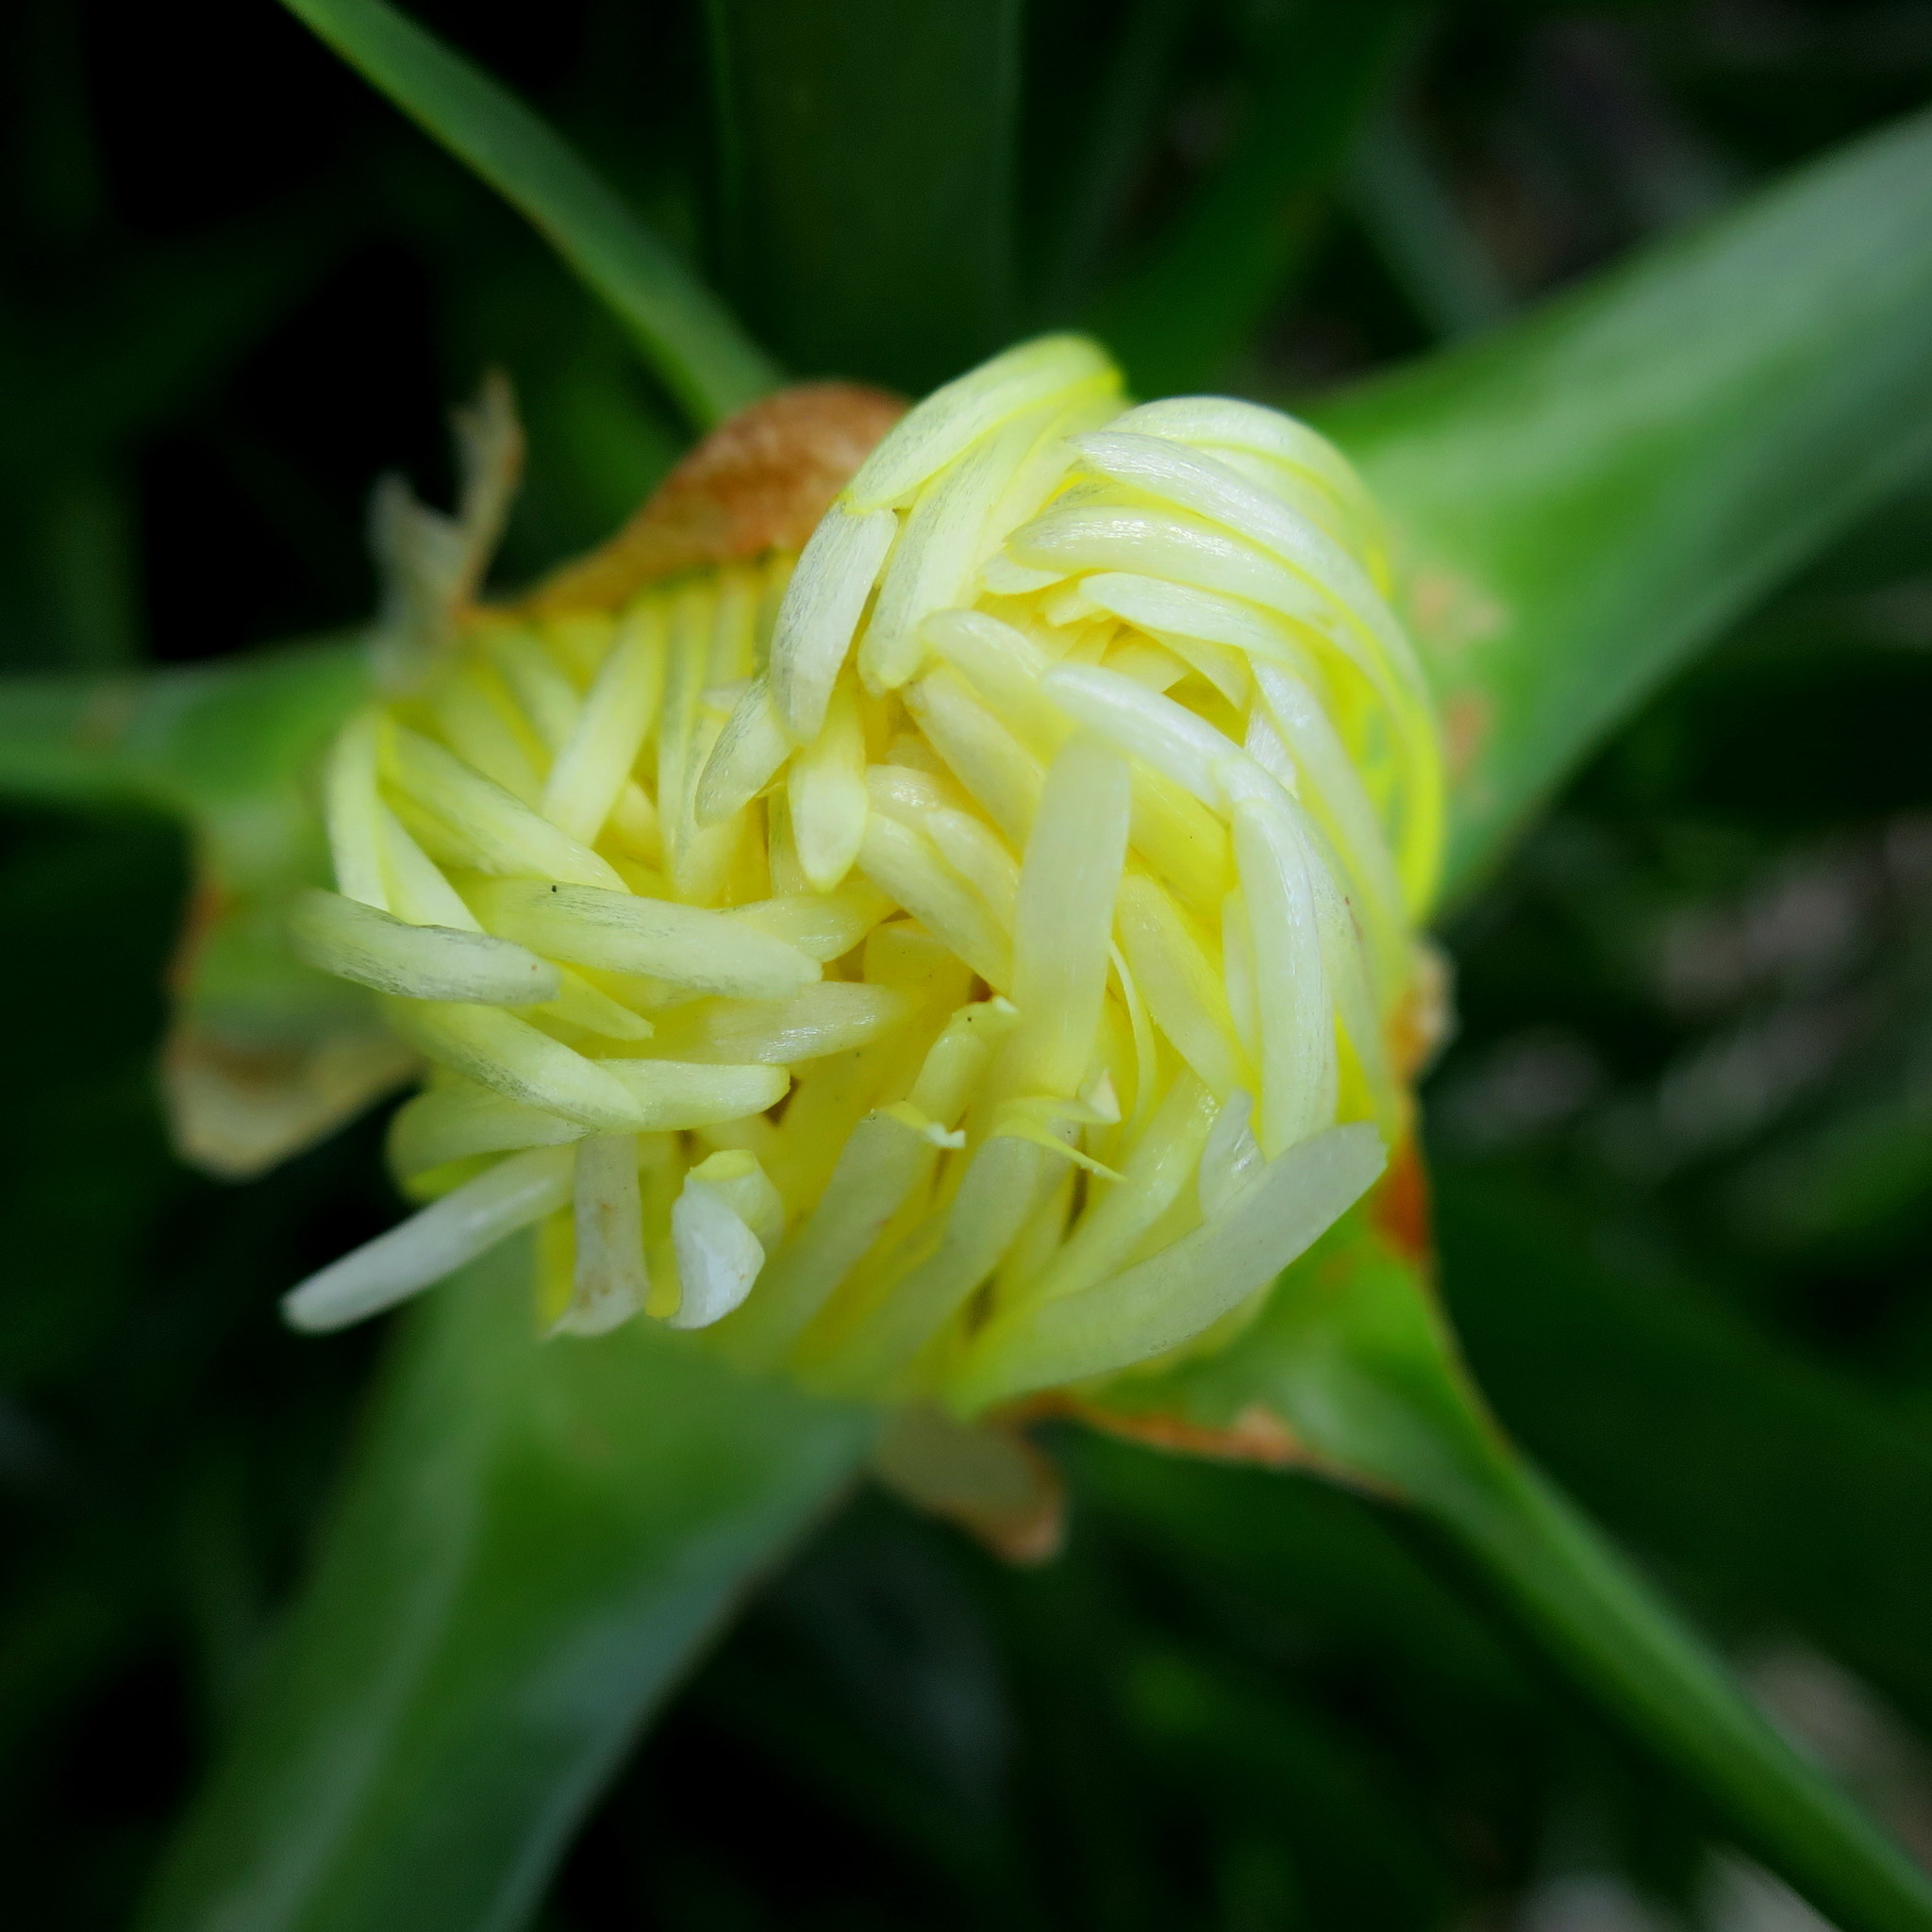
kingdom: Plantae
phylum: Tracheophyta
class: Magnoliopsida
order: Caryophyllales
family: Aizoaceae
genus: Carpobrotus
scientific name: Carpobrotus edulis
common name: Hottentot-fig
